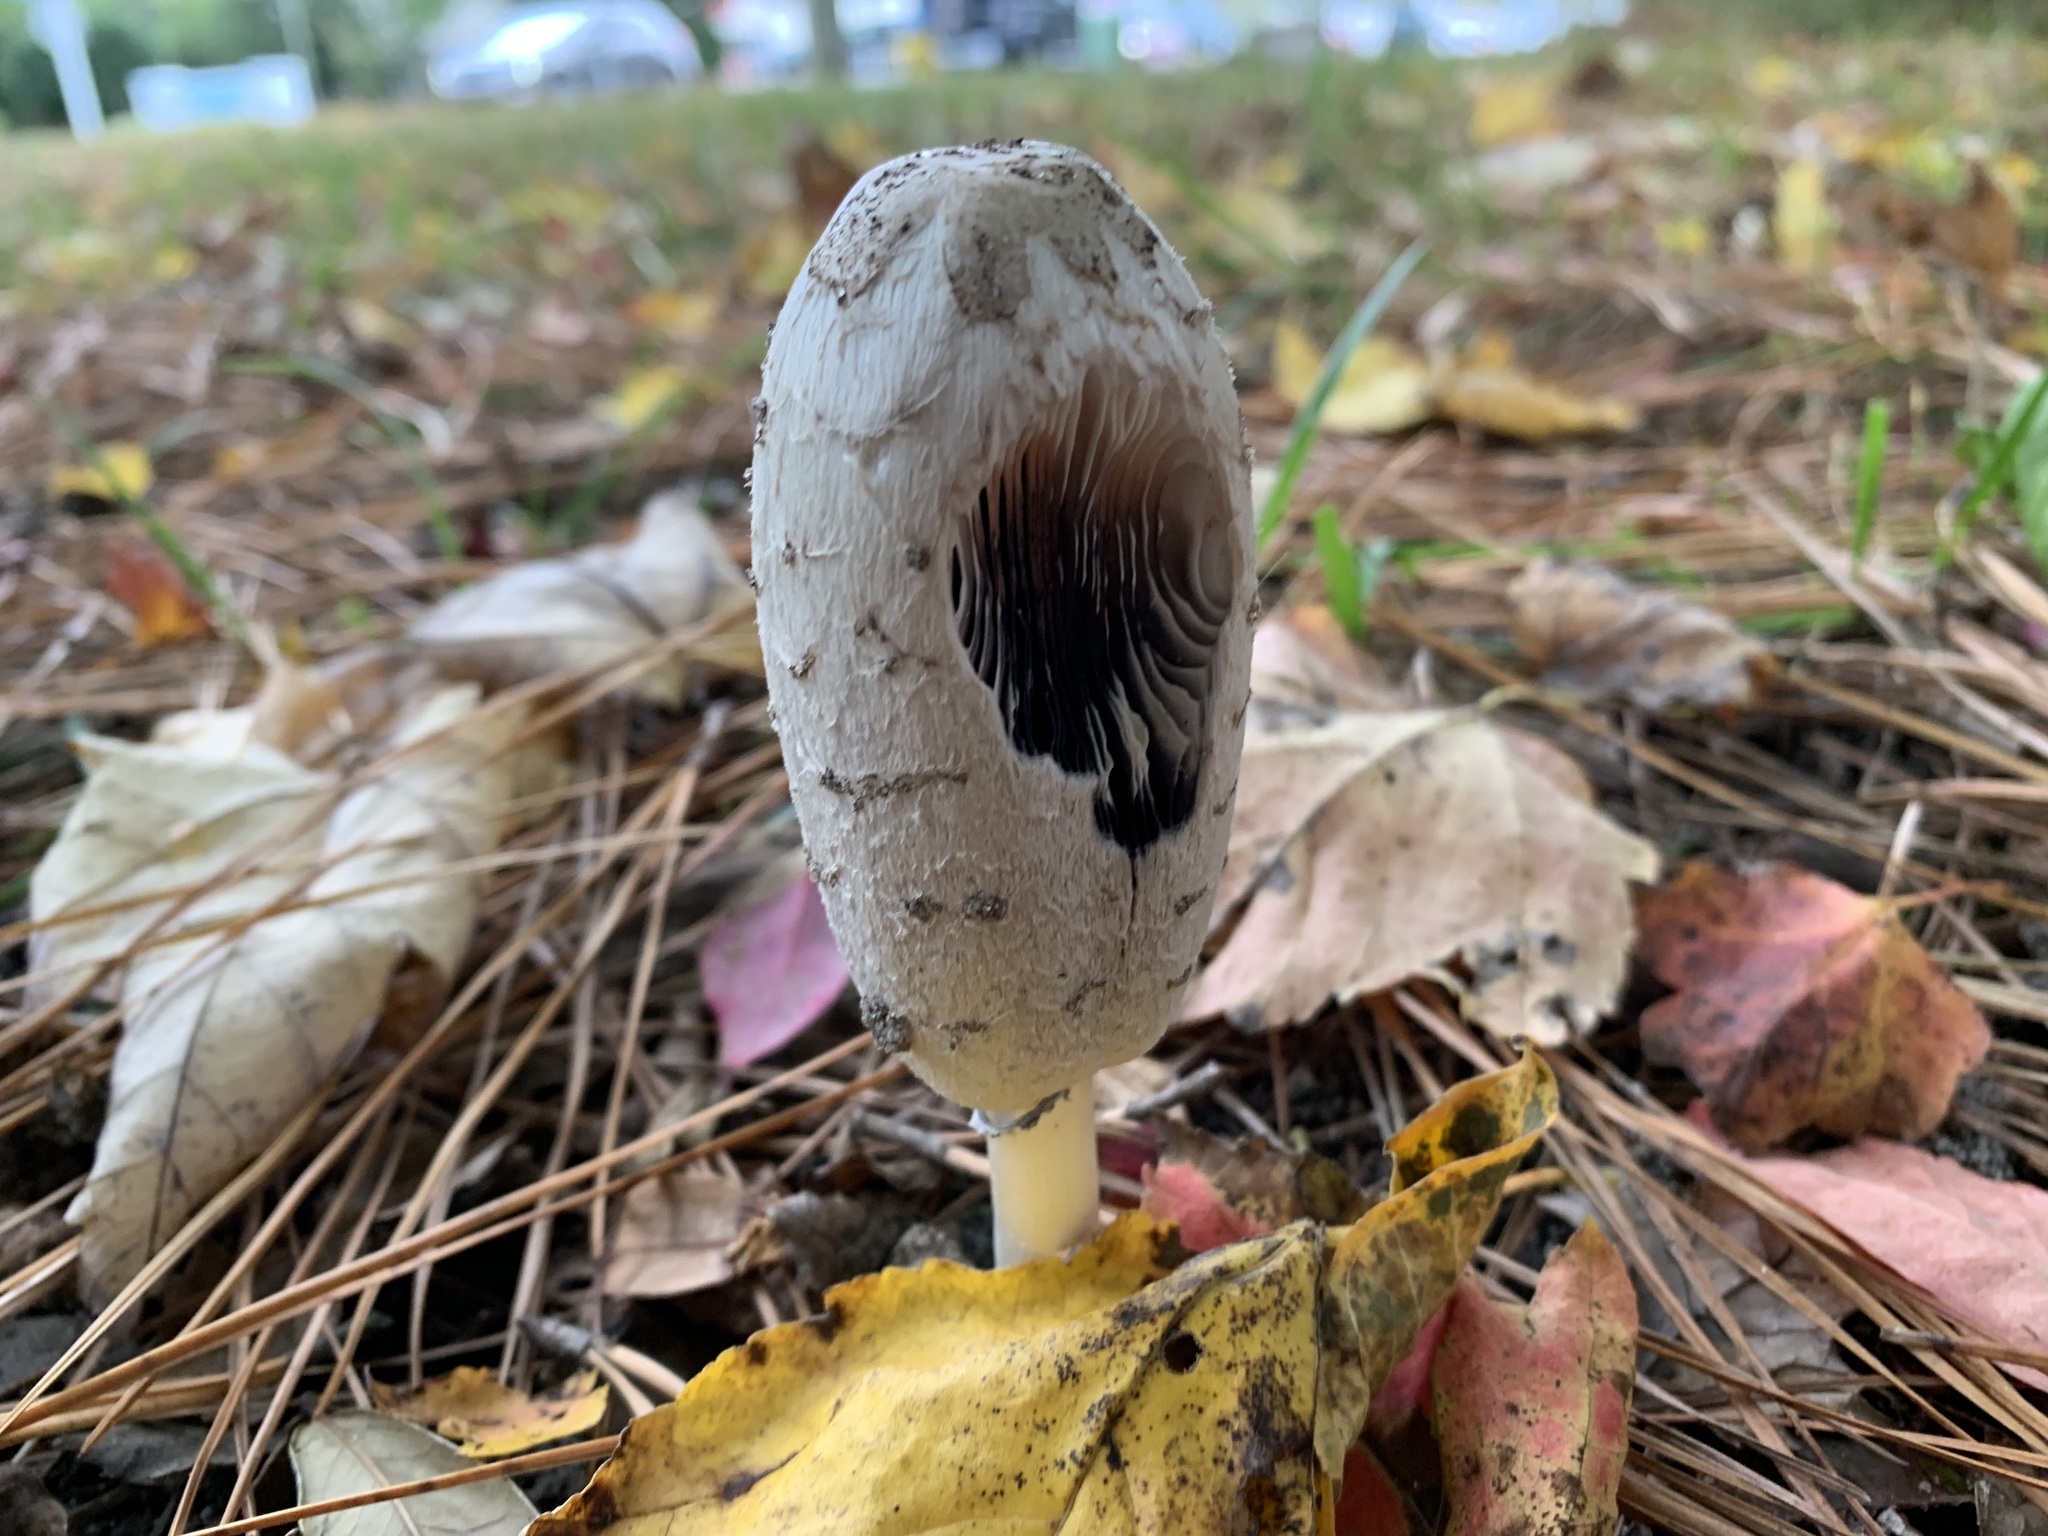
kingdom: Fungi
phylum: Basidiomycota
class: Agaricomycetes
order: Agaricales
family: Agaricaceae
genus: Coprinus
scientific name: Coprinus comatus
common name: Lawyer's wig
